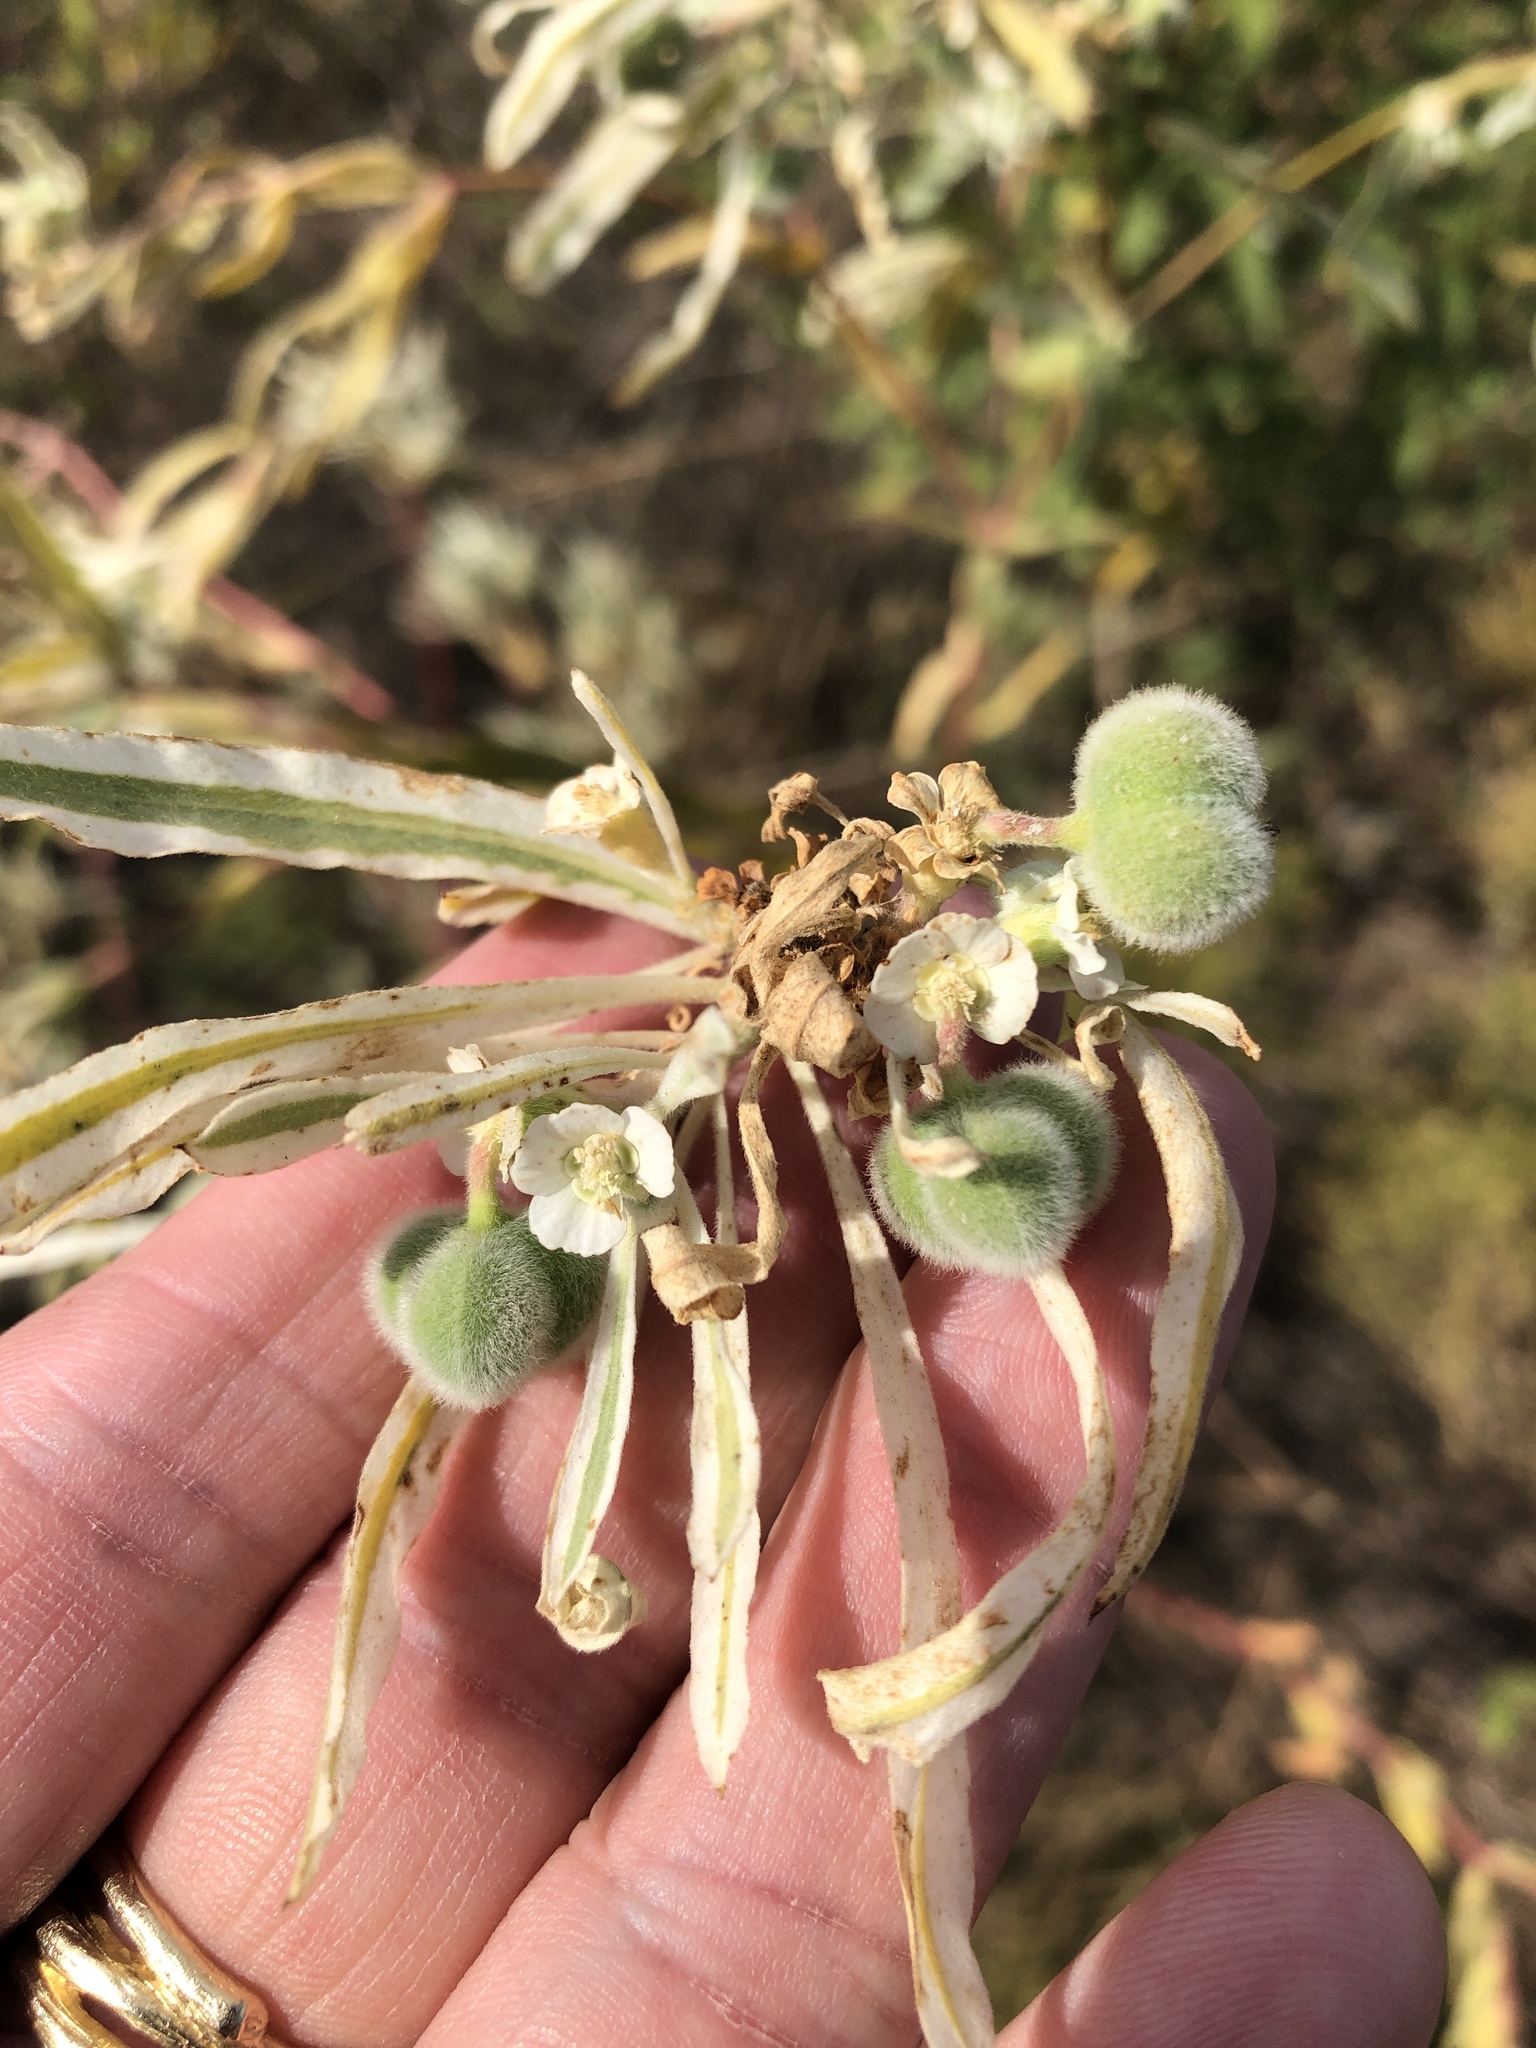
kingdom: Plantae
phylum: Tracheophyta
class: Magnoliopsida
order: Malpighiales
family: Euphorbiaceae
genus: Euphorbia
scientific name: Euphorbia bicolor
